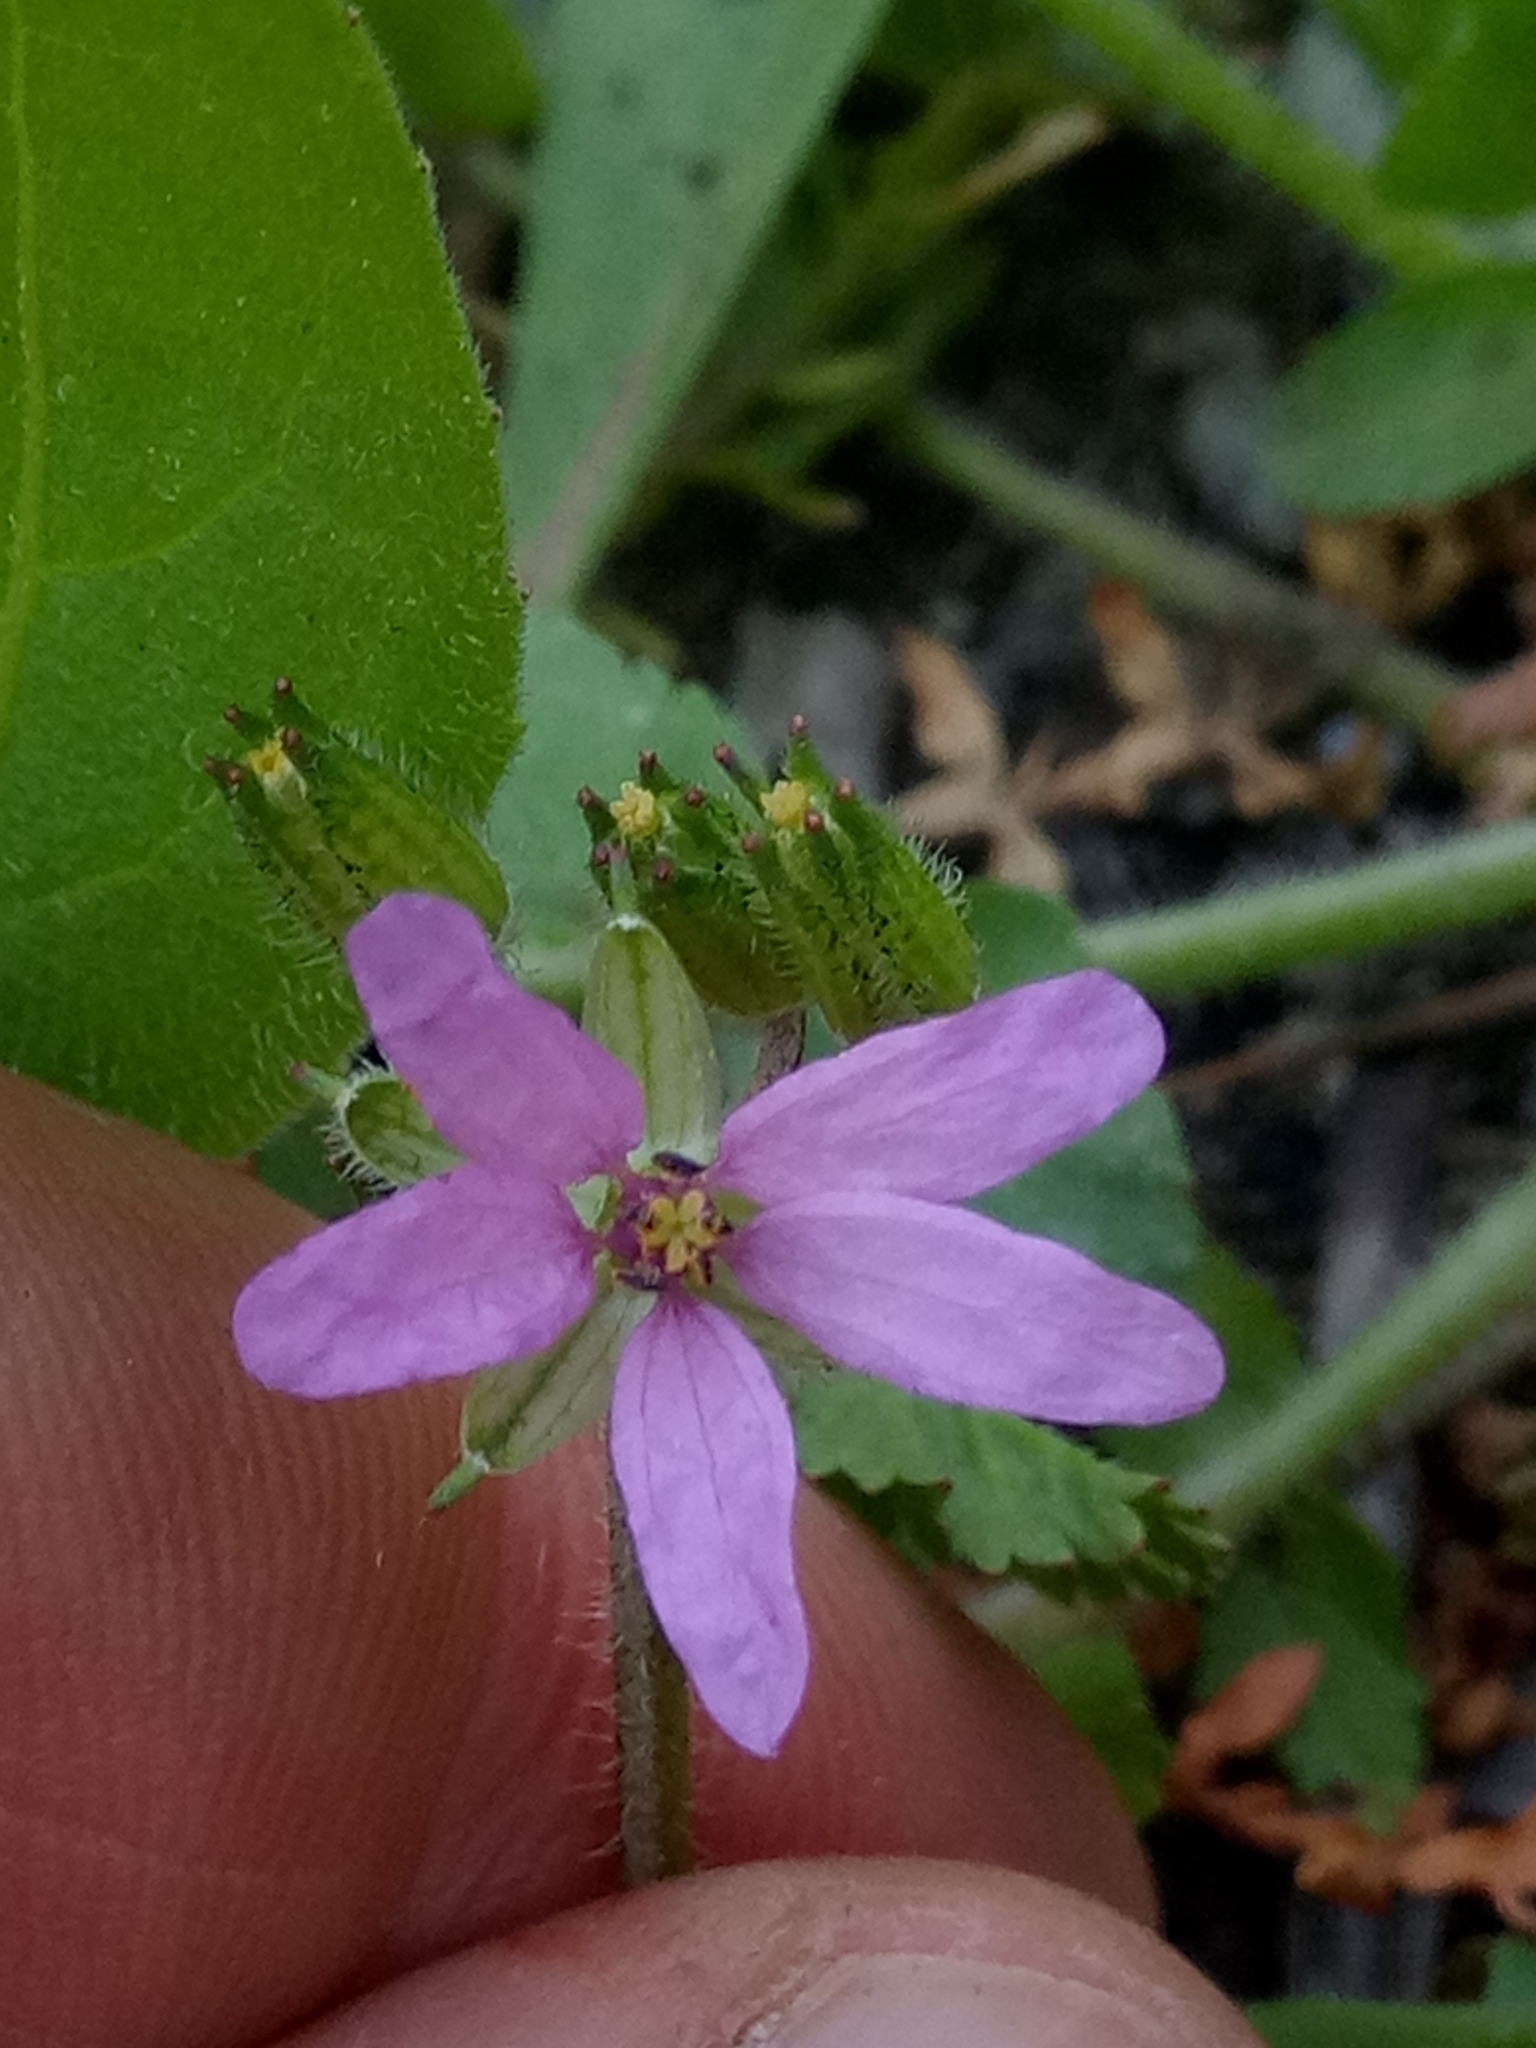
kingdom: Plantae
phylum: Tracheophyta
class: Magnoliopsida
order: Geraniales
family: Geraniaceae
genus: Erodium
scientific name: Erodium moschatum
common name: Musk stork's-bill
